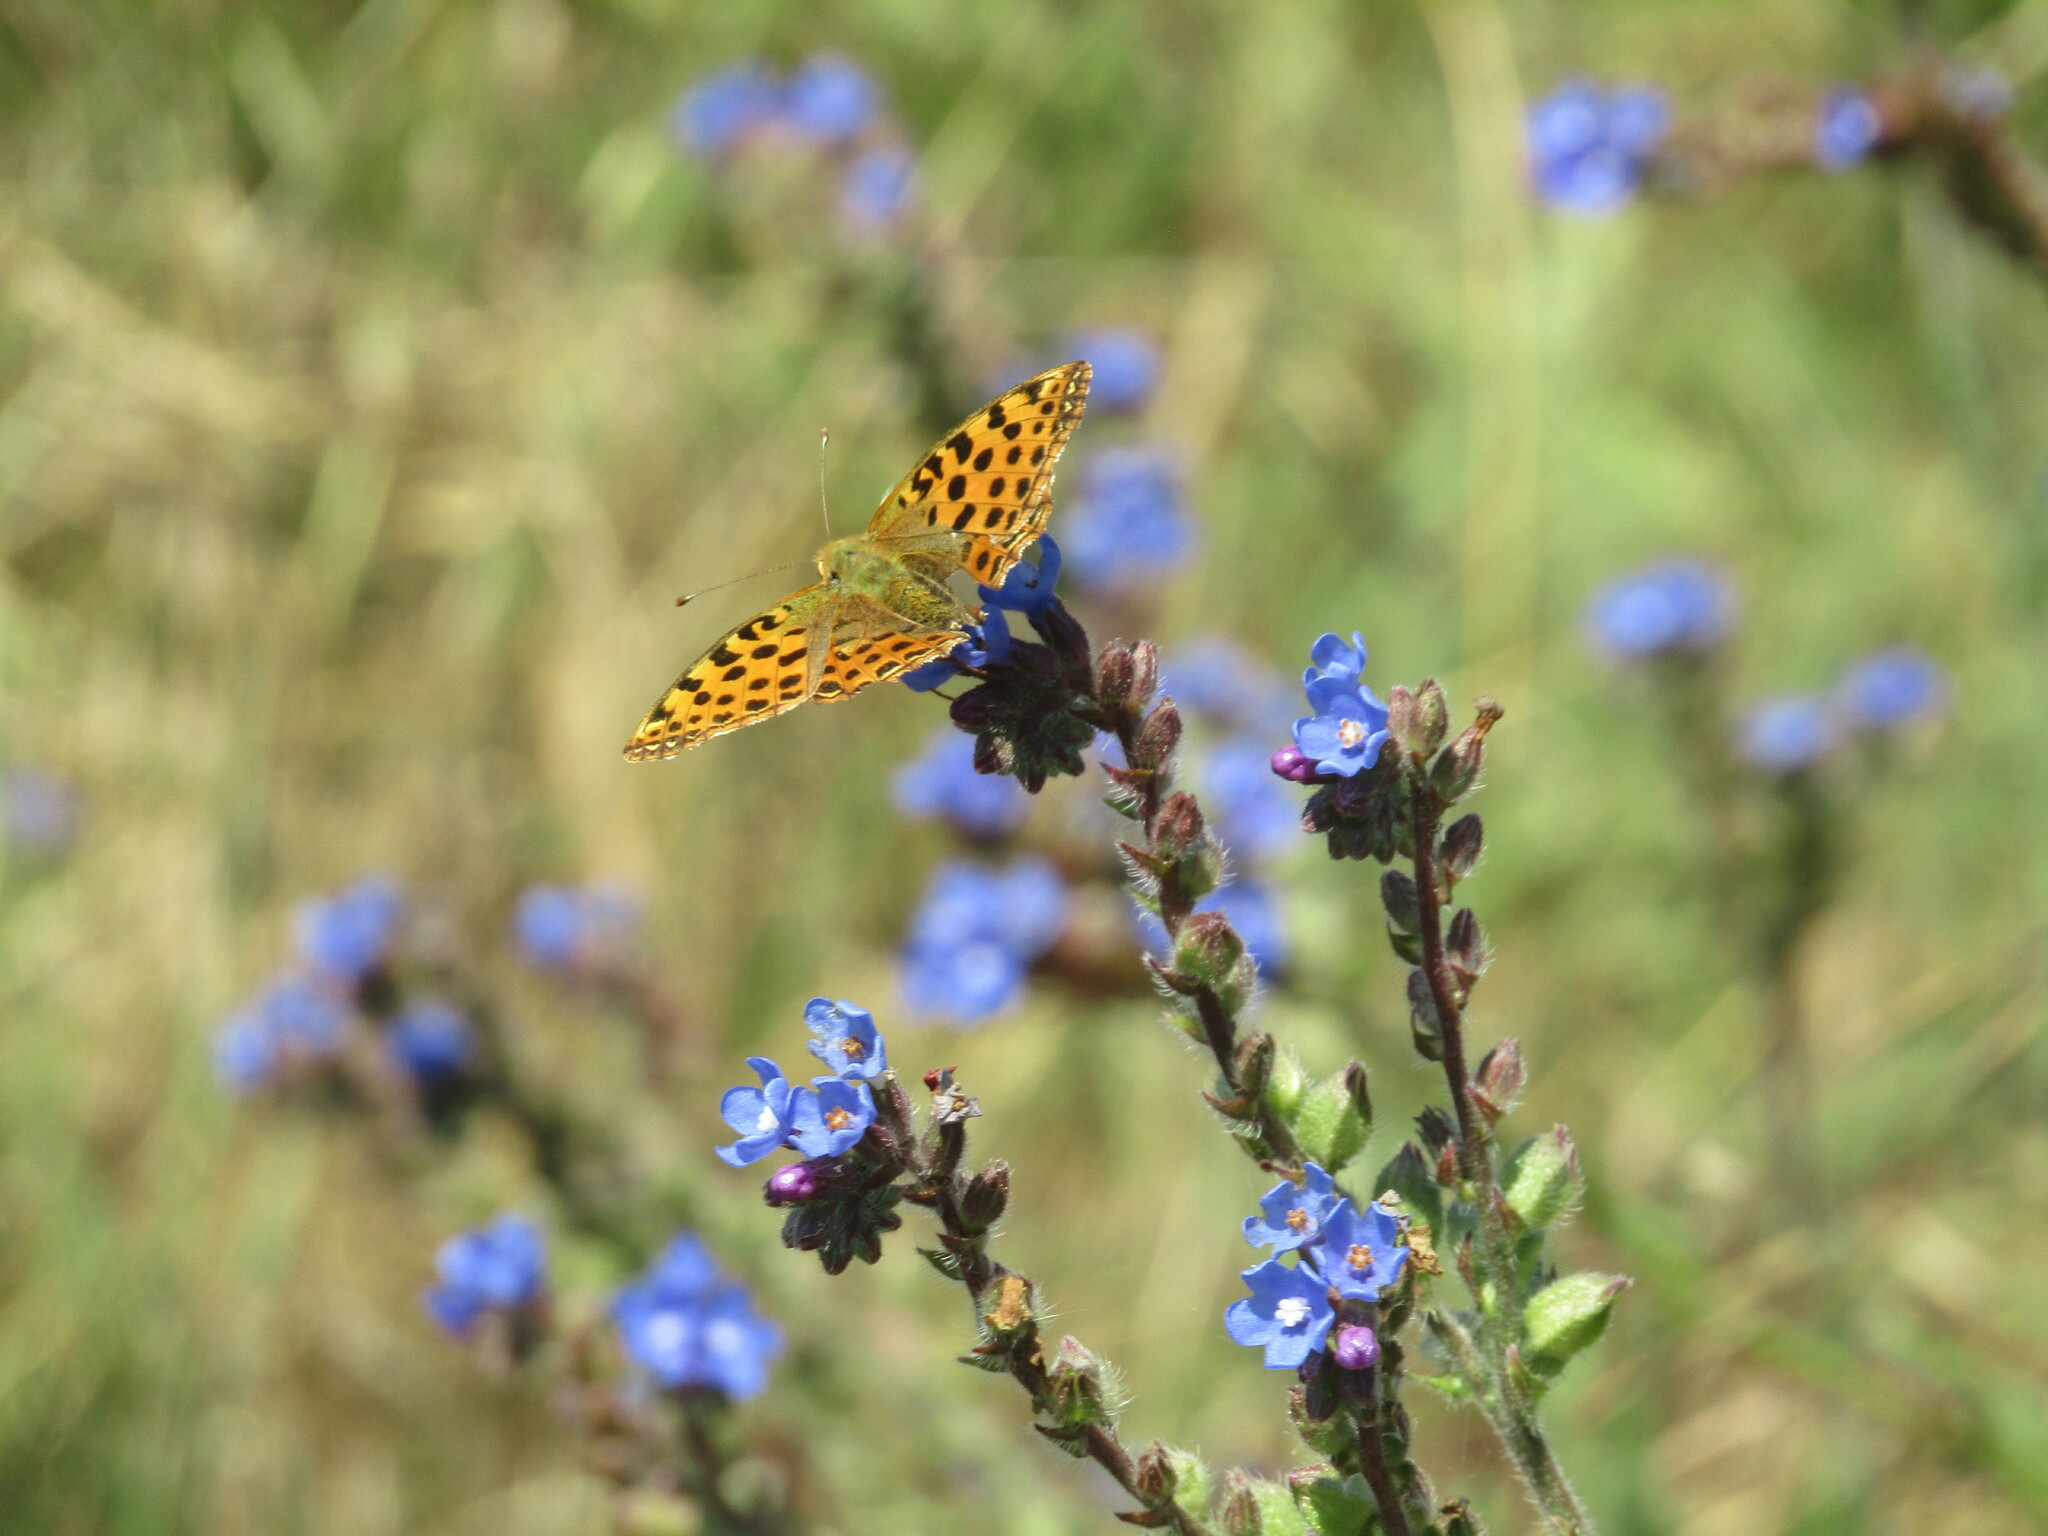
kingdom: Animalia
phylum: Arthropoda
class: Insecta
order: Lepidoptera
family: Nymphalidae
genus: Issoria
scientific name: Issoria lathonia
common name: Queen of spain fritillary
